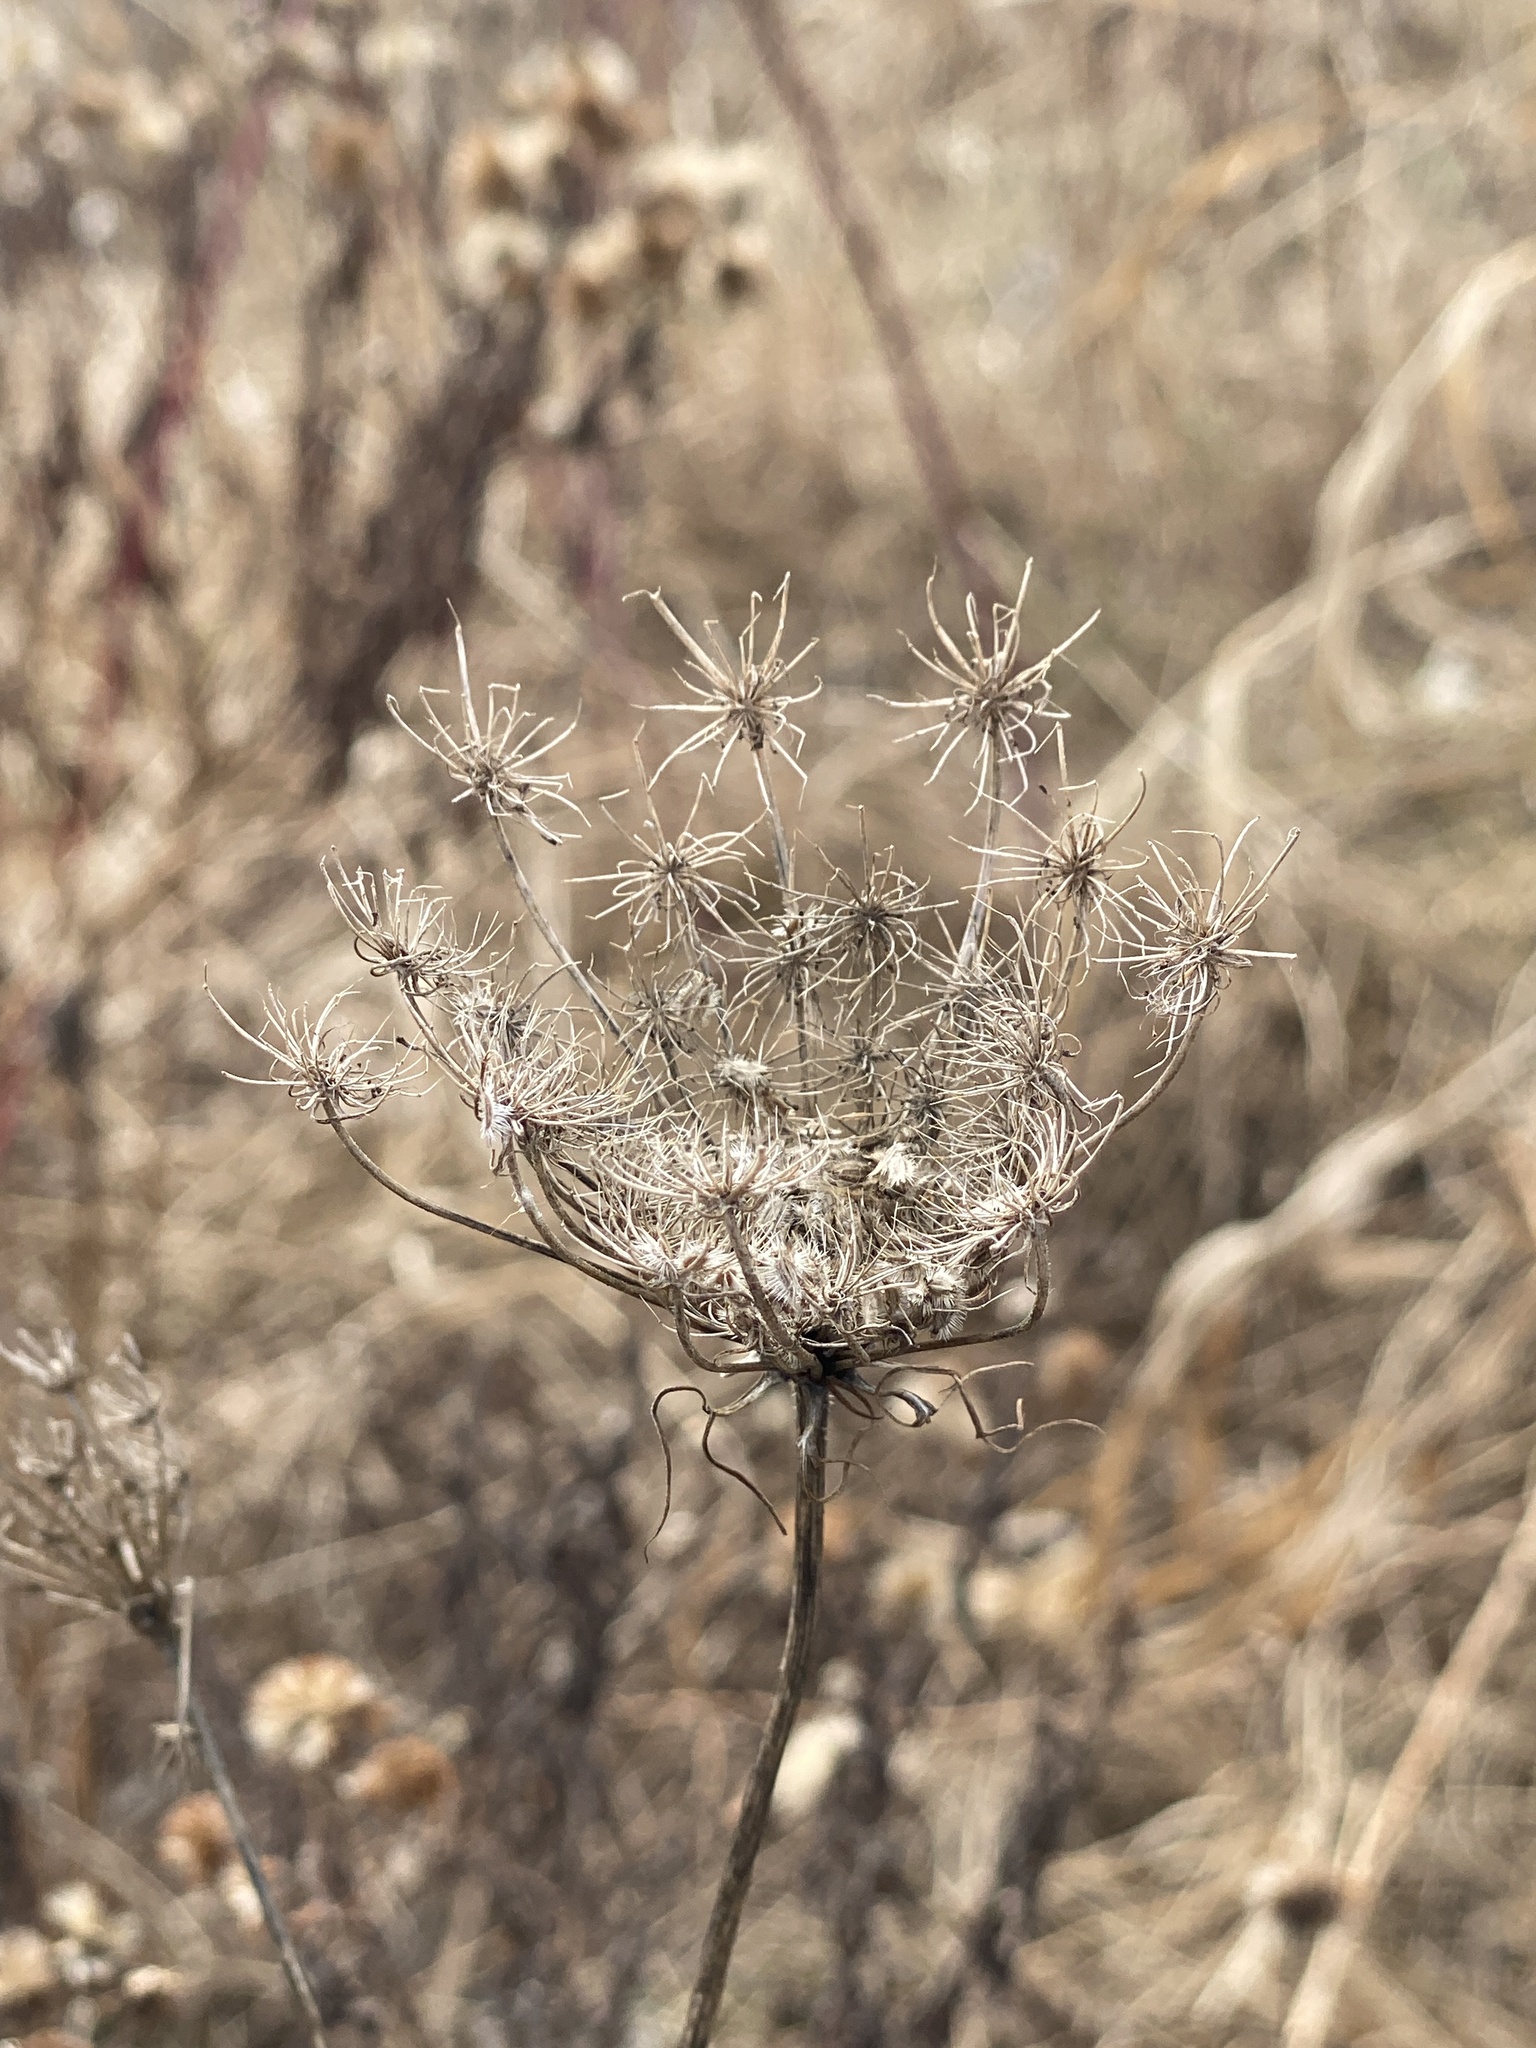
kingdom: Plantae
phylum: Tracheophyta
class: Magnoliopsida
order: Apiales
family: Apiaceae
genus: Daucus
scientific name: Daucus carota
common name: Wild carrot
